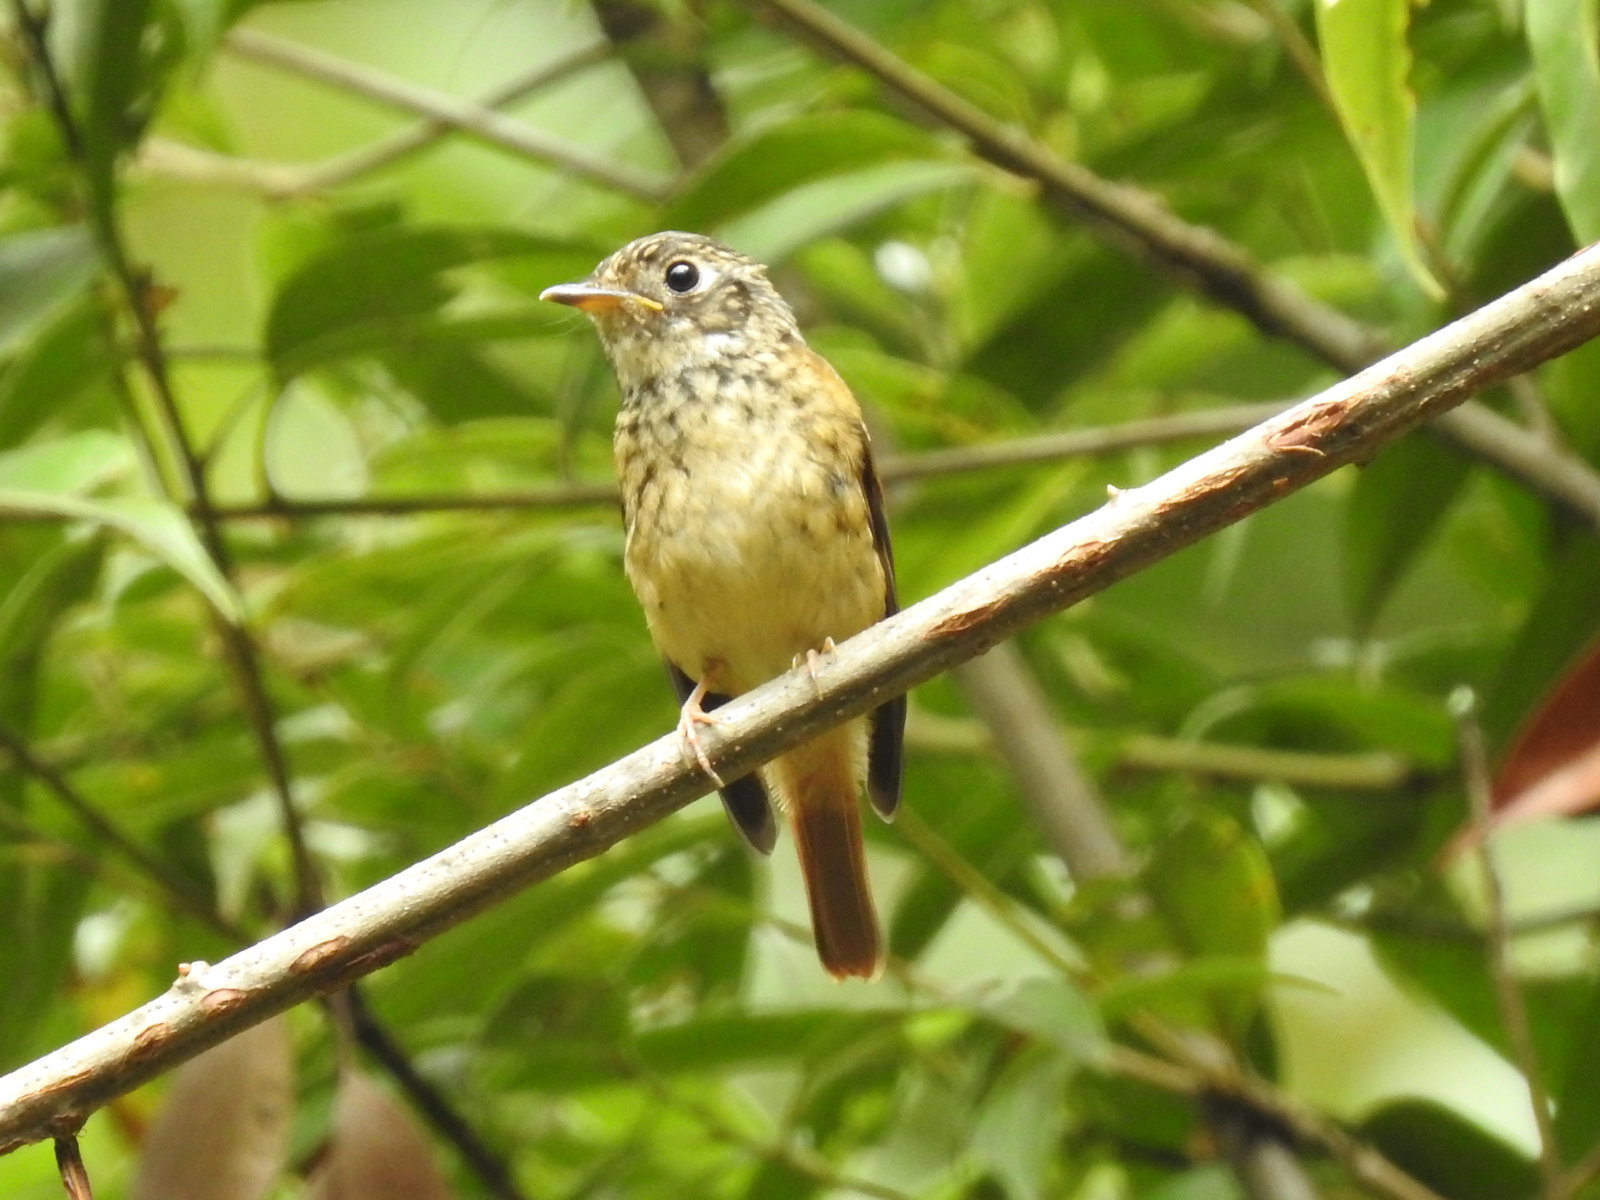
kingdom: Animalia
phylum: Chordata
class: Aves
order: Passeriformes
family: Muscicapidae
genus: Muscicapa
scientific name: Muscicapa ferruginea
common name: Ferruginous flycatcher
